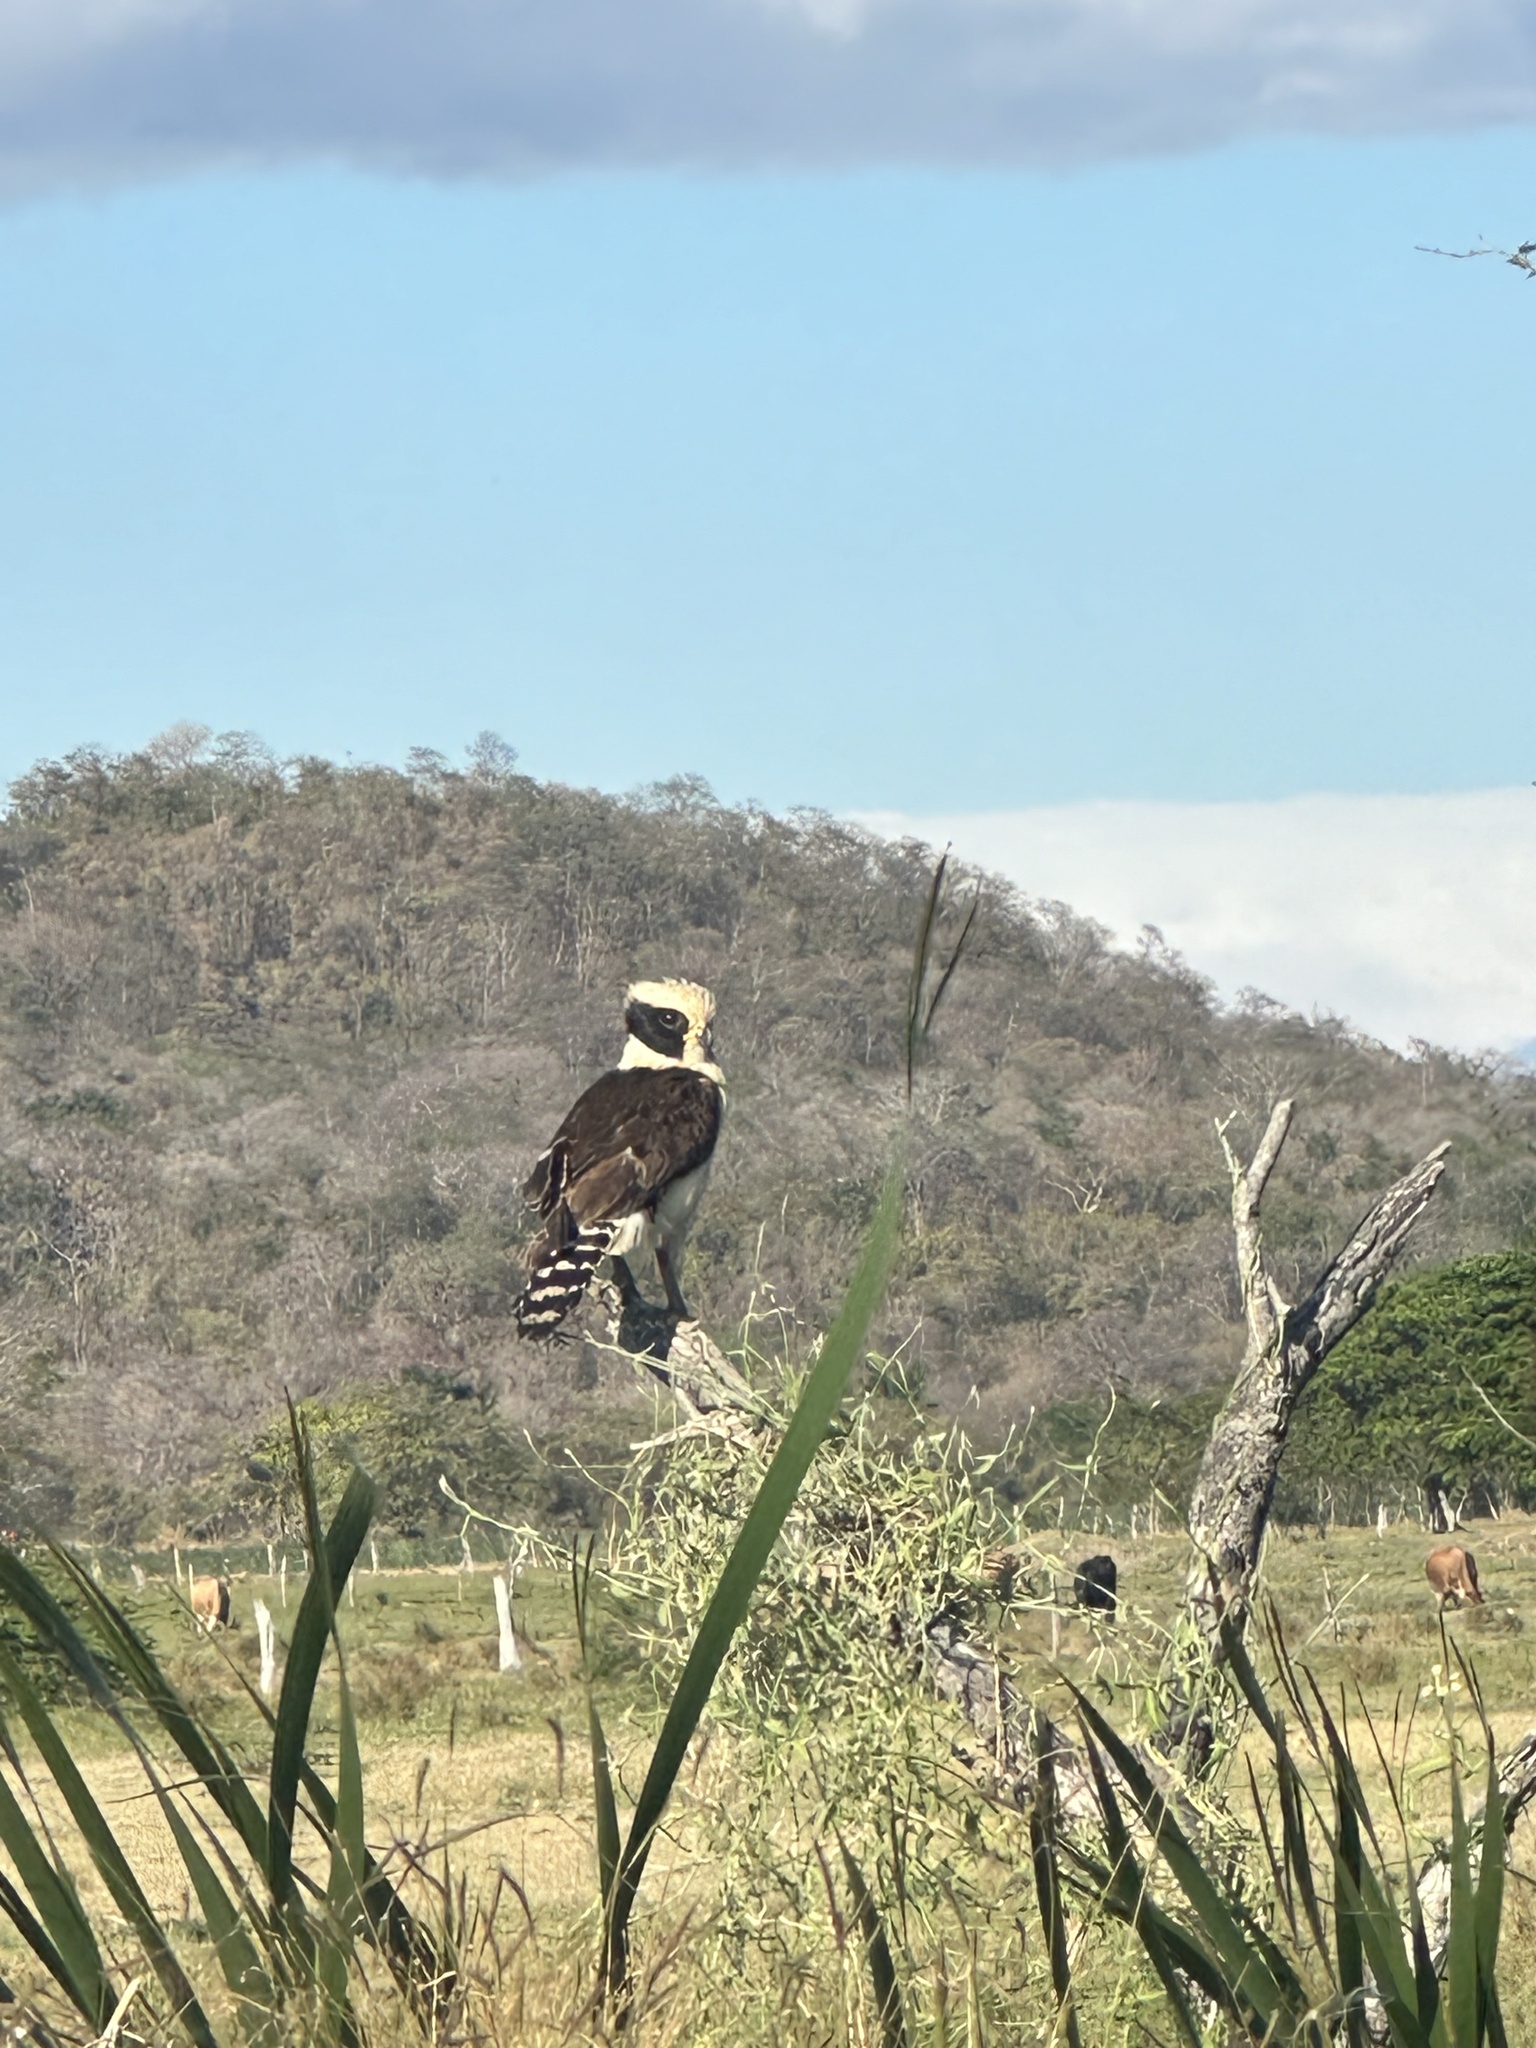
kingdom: Animalia
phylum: Chordata
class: Aves
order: Falconiformes
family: Falconidae
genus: Herpetotheres
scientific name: Herpetotheres cachinnans
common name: Laughing falcon
